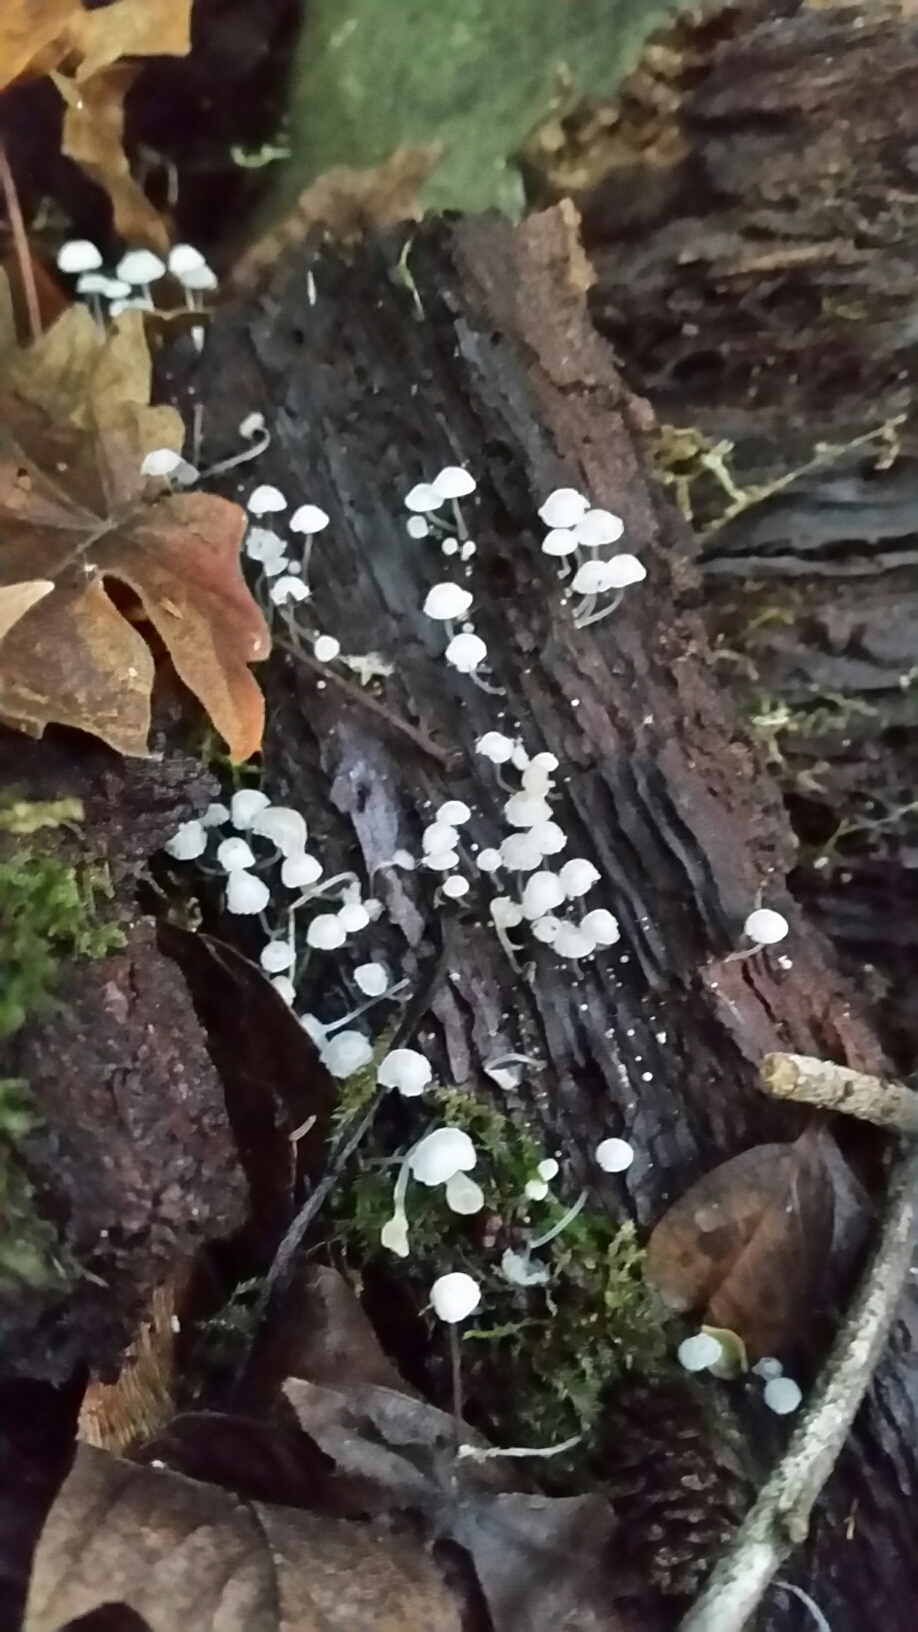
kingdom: Fungi
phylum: Basidiomycota
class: Agaricomycetes
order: Agaricales
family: Mycenaceae
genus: Mycena
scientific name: Mycena tenerrima
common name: Frosty bonnet
